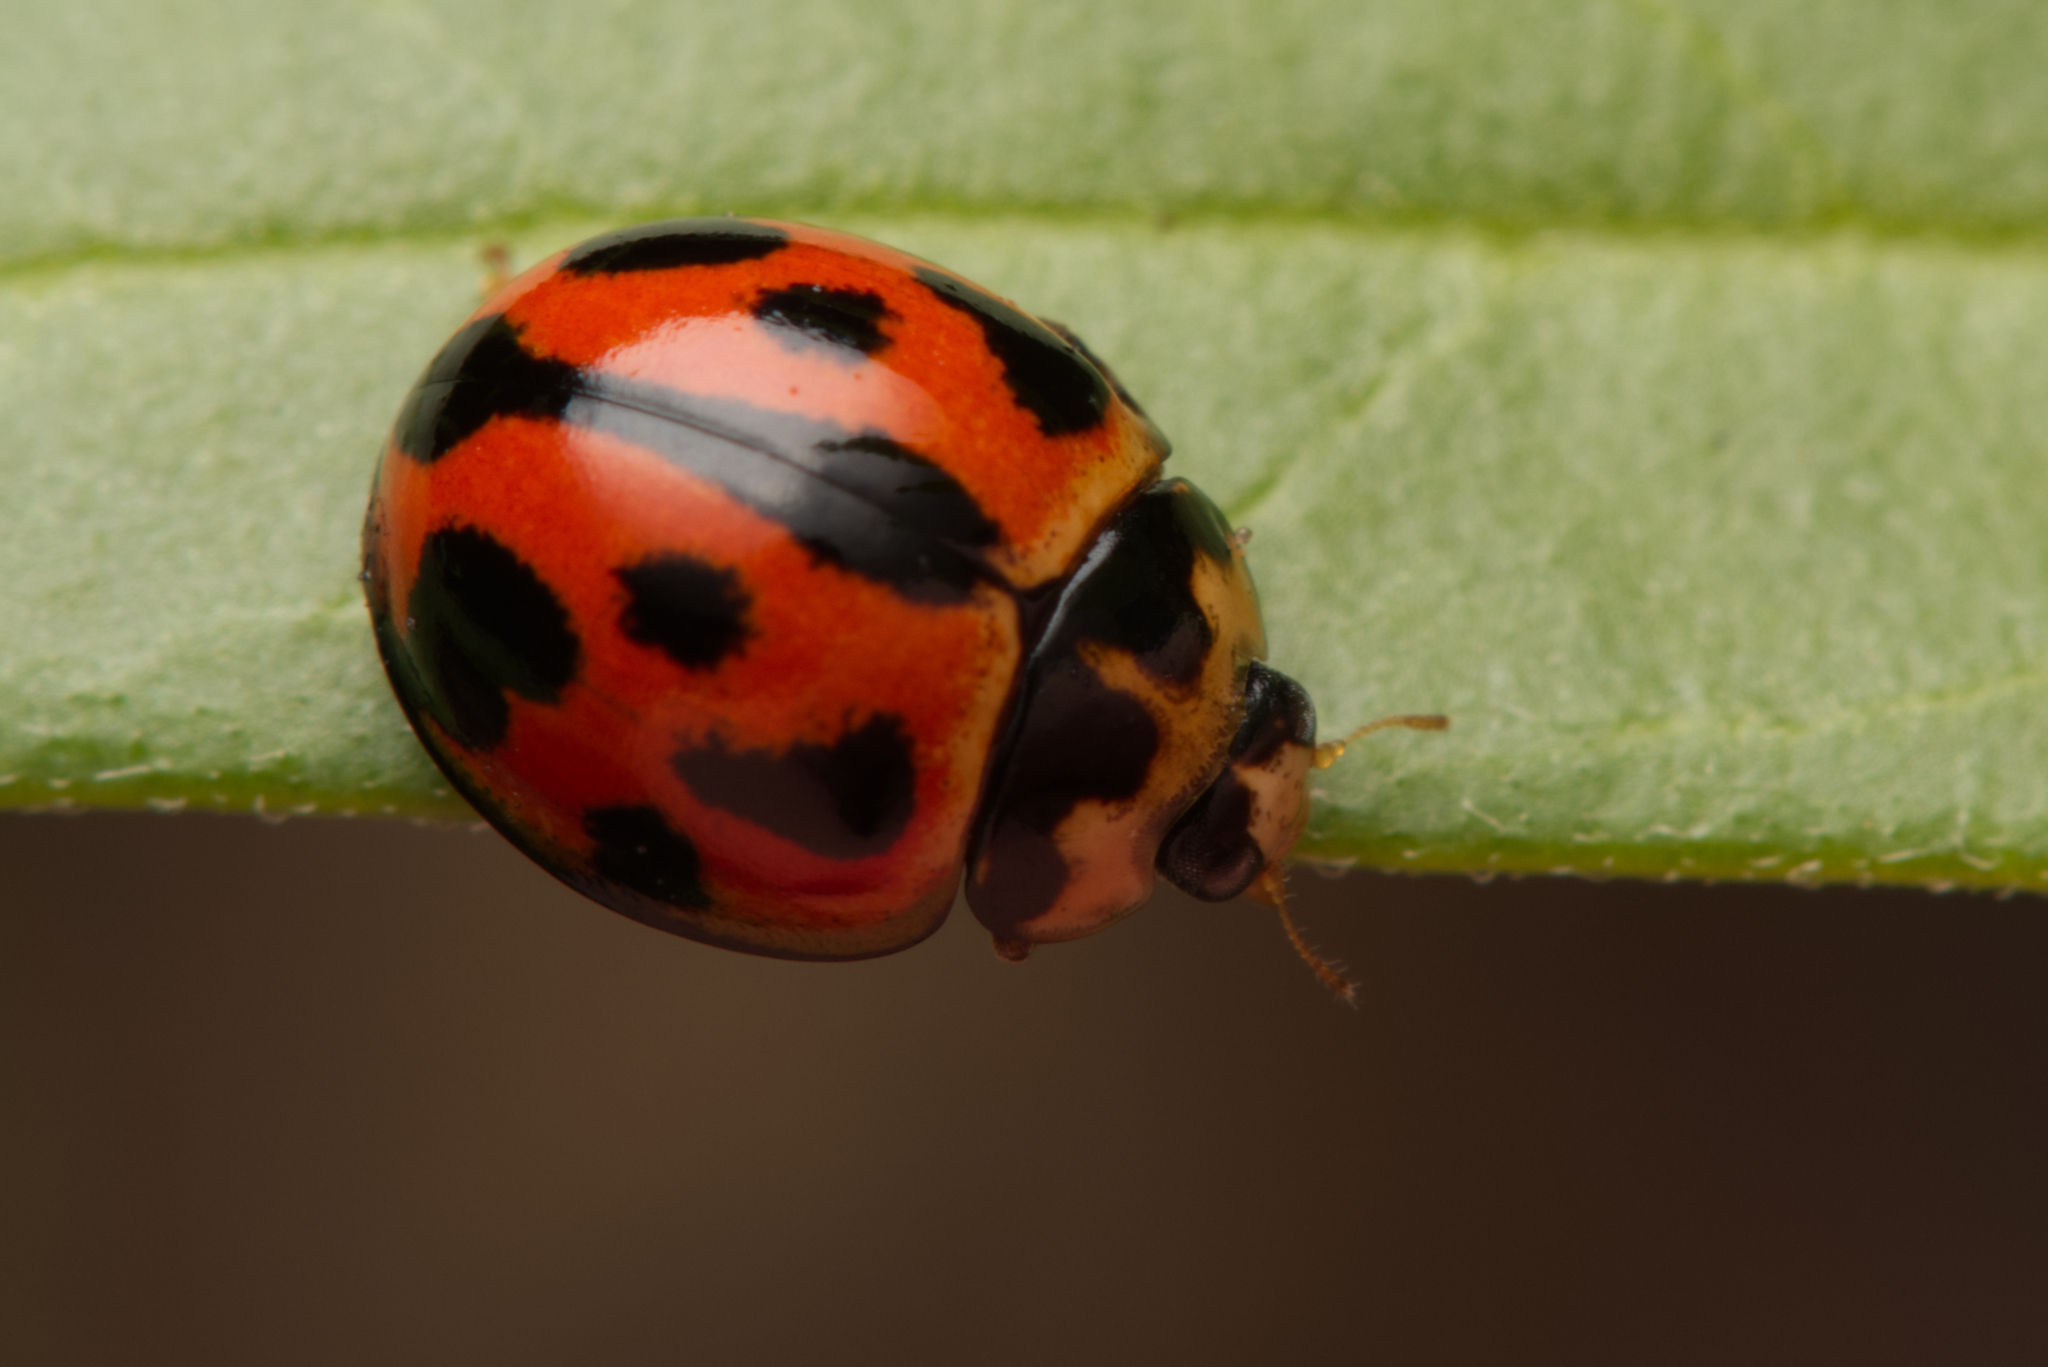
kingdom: Animalia
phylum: Arthropoda
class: Insecta
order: Coleoptera
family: Coccinellidae
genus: Coelophora
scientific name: Coelophora inaequalis
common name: Common australian lady beetle
